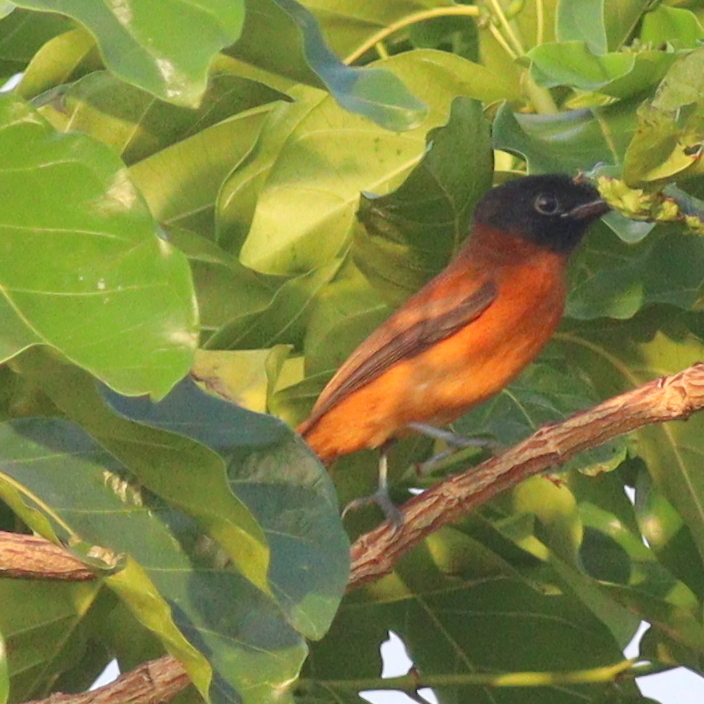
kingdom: Animalia
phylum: Chordata
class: Aves
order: Passeriformes
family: Monarchidae
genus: Terpsiphone
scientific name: Terpsiphone rufiventer
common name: Red-bellied paradise flycatcher
